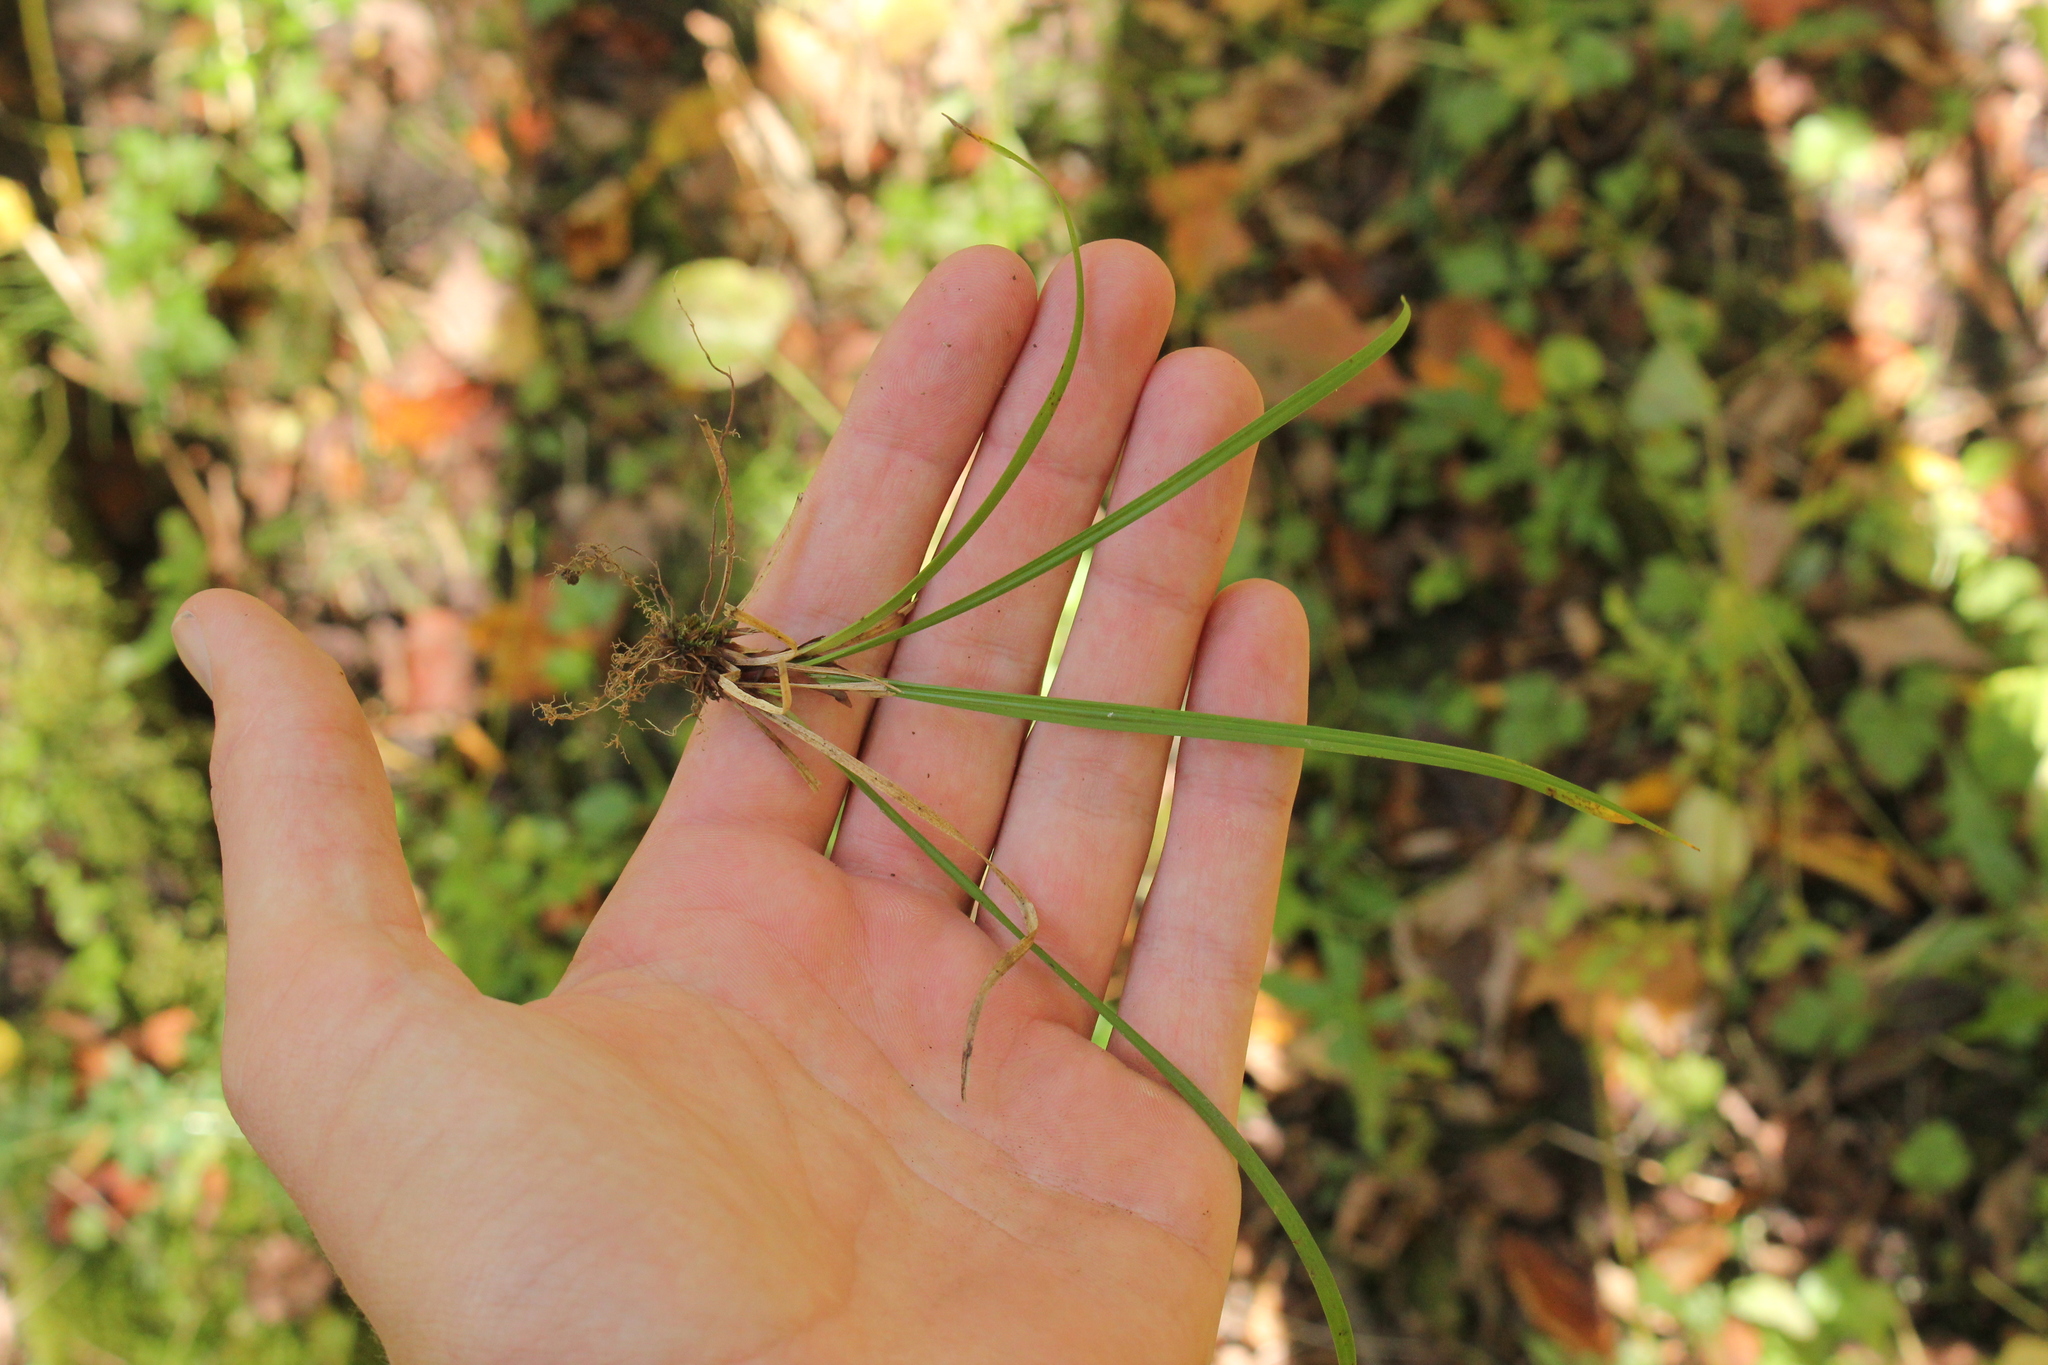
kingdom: Plantae
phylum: Tracheophyta
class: Liliopsida
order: Poales
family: Cyperaceae
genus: Carex
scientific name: Carex pedunculata
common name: Pedunculate sedge
